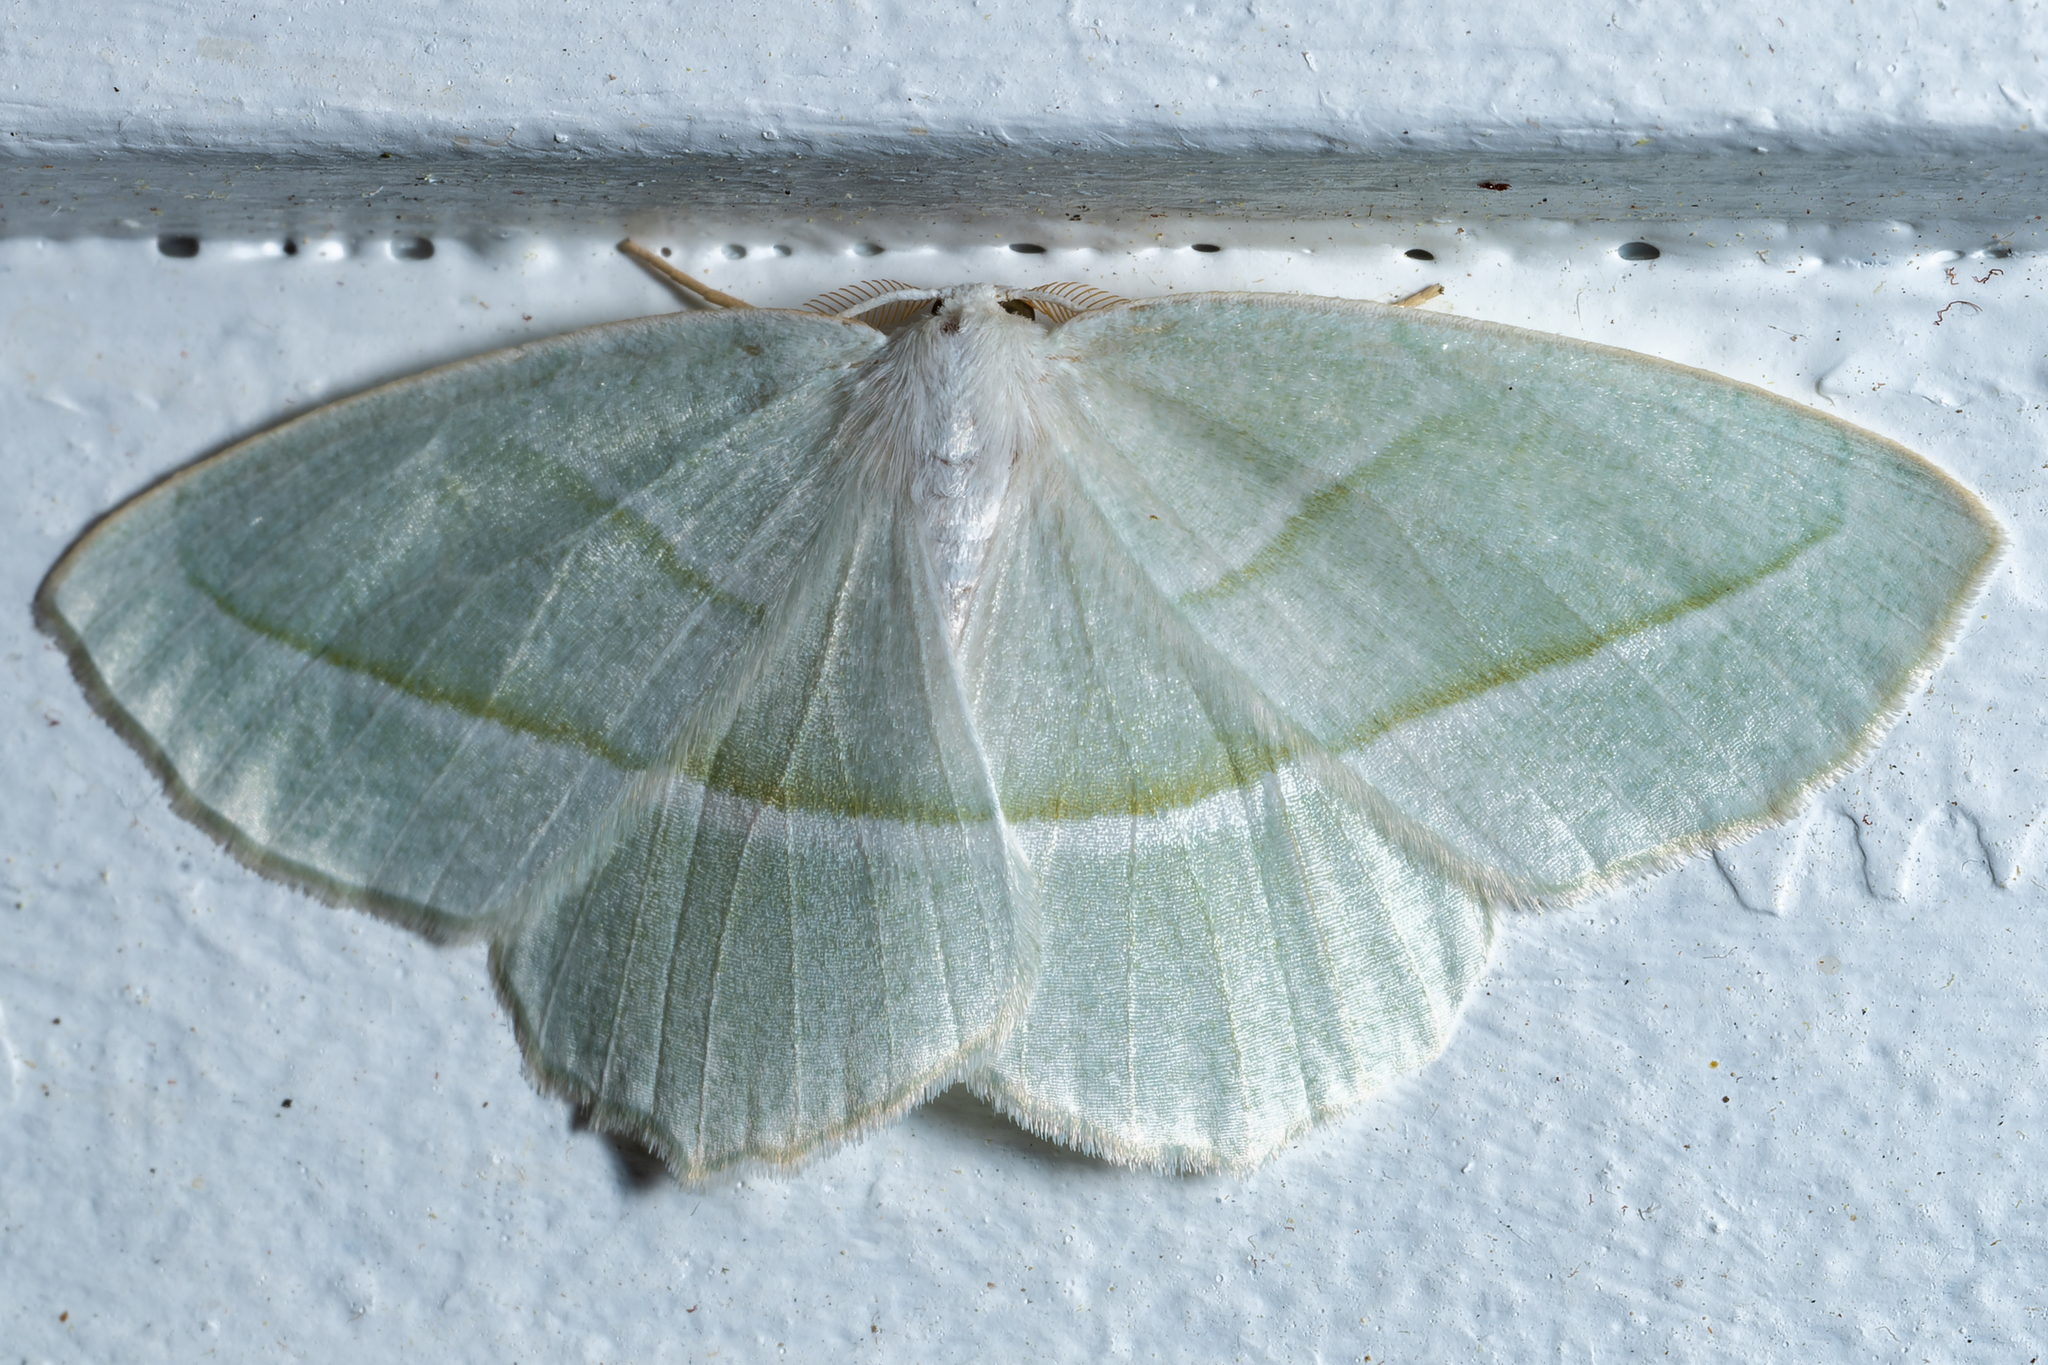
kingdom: Animalia
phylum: Arthropoda
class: Insecta
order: Lepidoptera
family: Geometridae
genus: Campaea
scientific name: Campaea perlata
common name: Fringed looper
